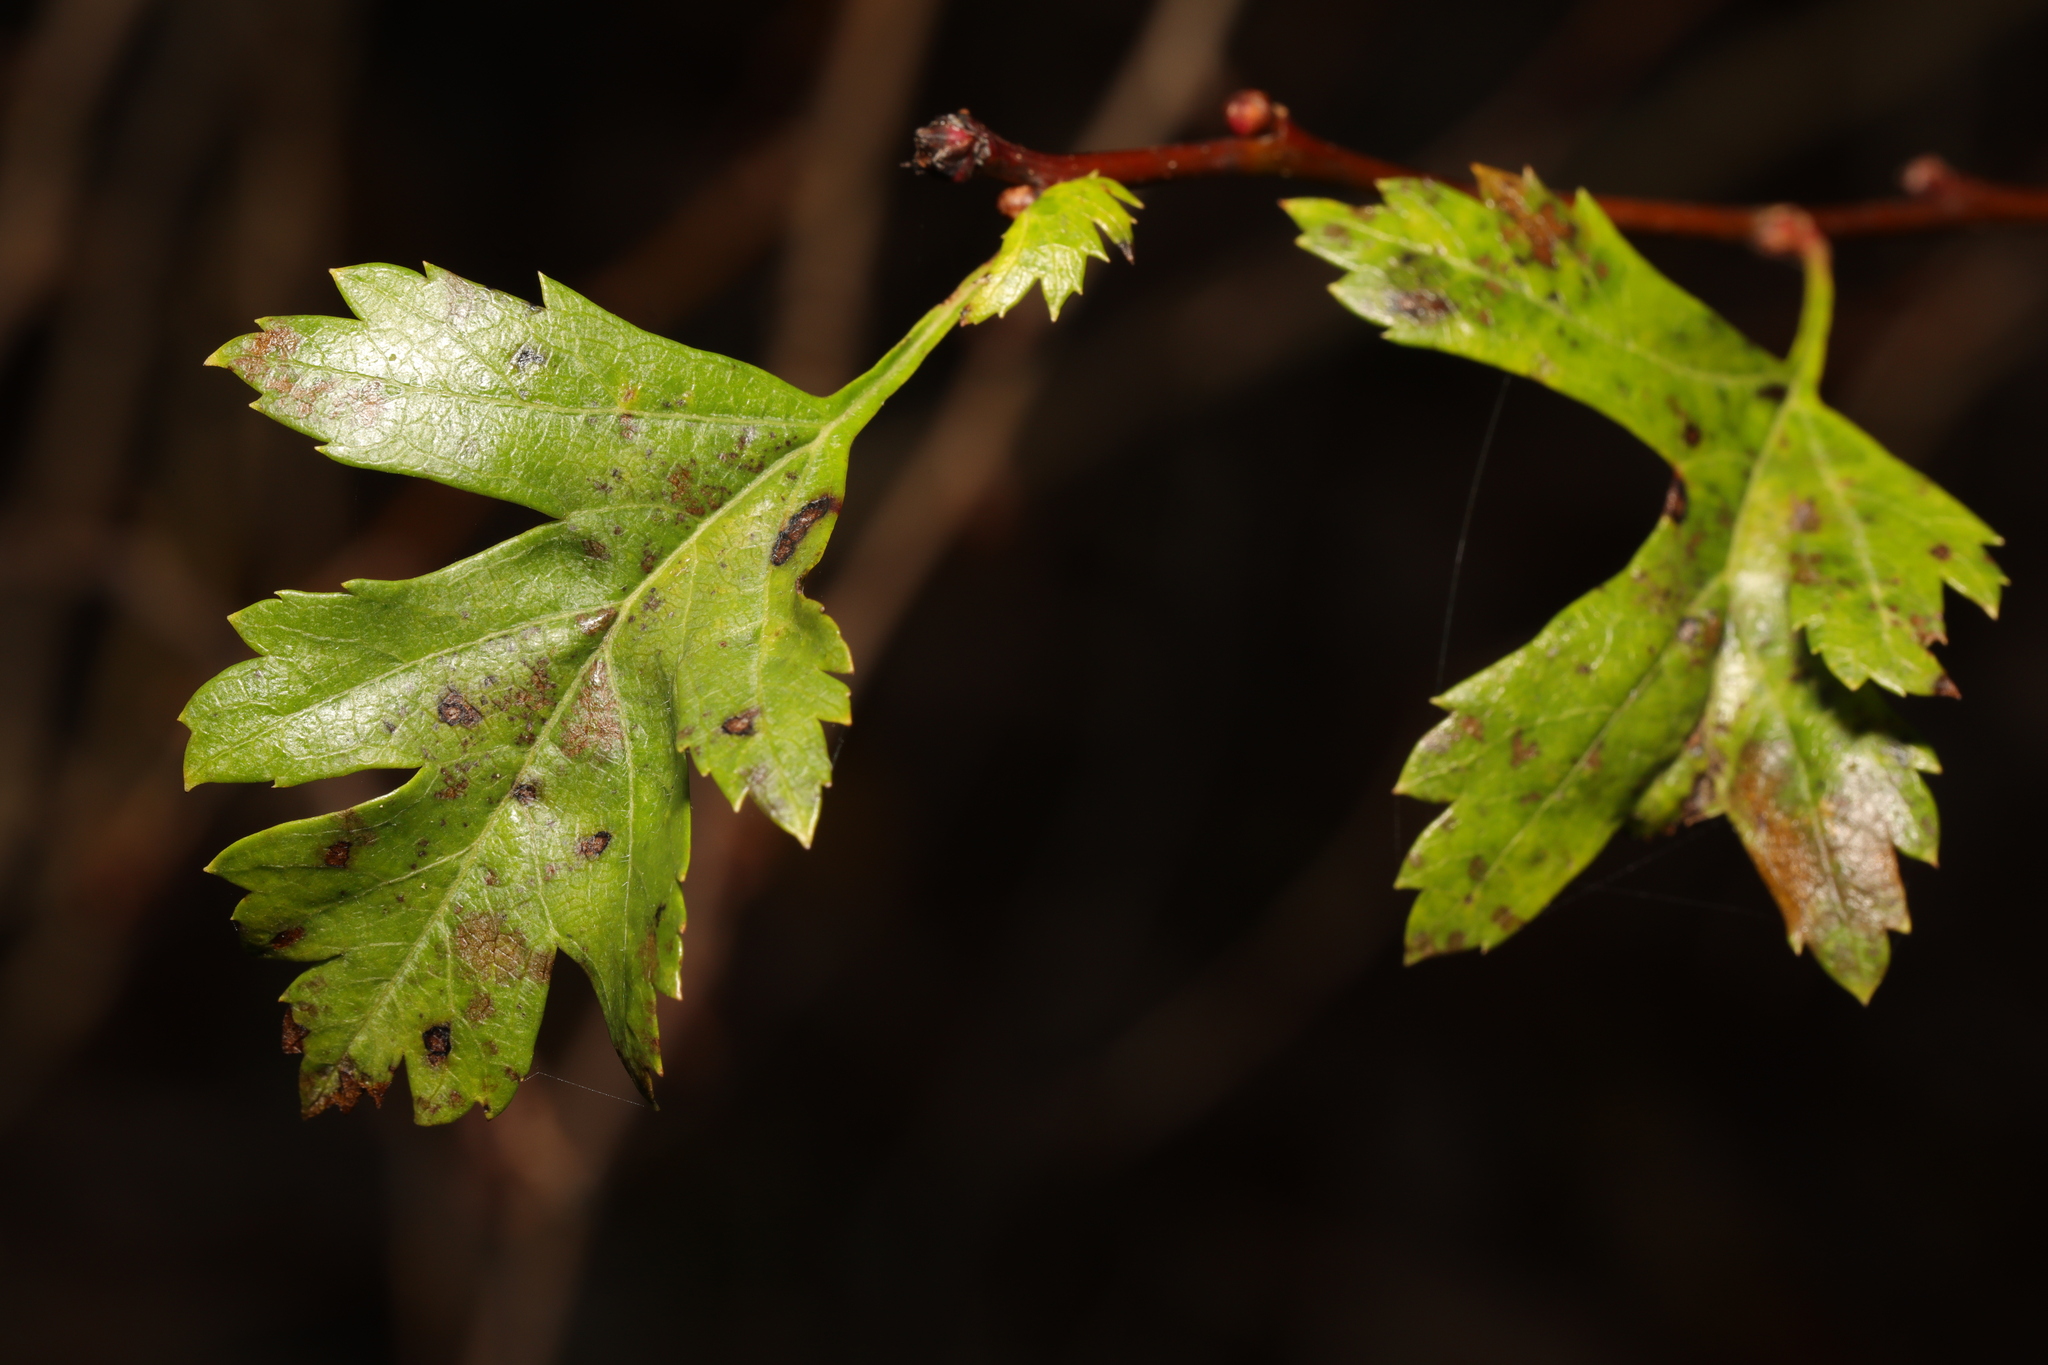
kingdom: Plantae
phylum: Tracheophyta
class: Magnoliopsida
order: Rosales
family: Rosaceae
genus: Crataegus
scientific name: Crataegus monogyna
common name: Hawthorn
